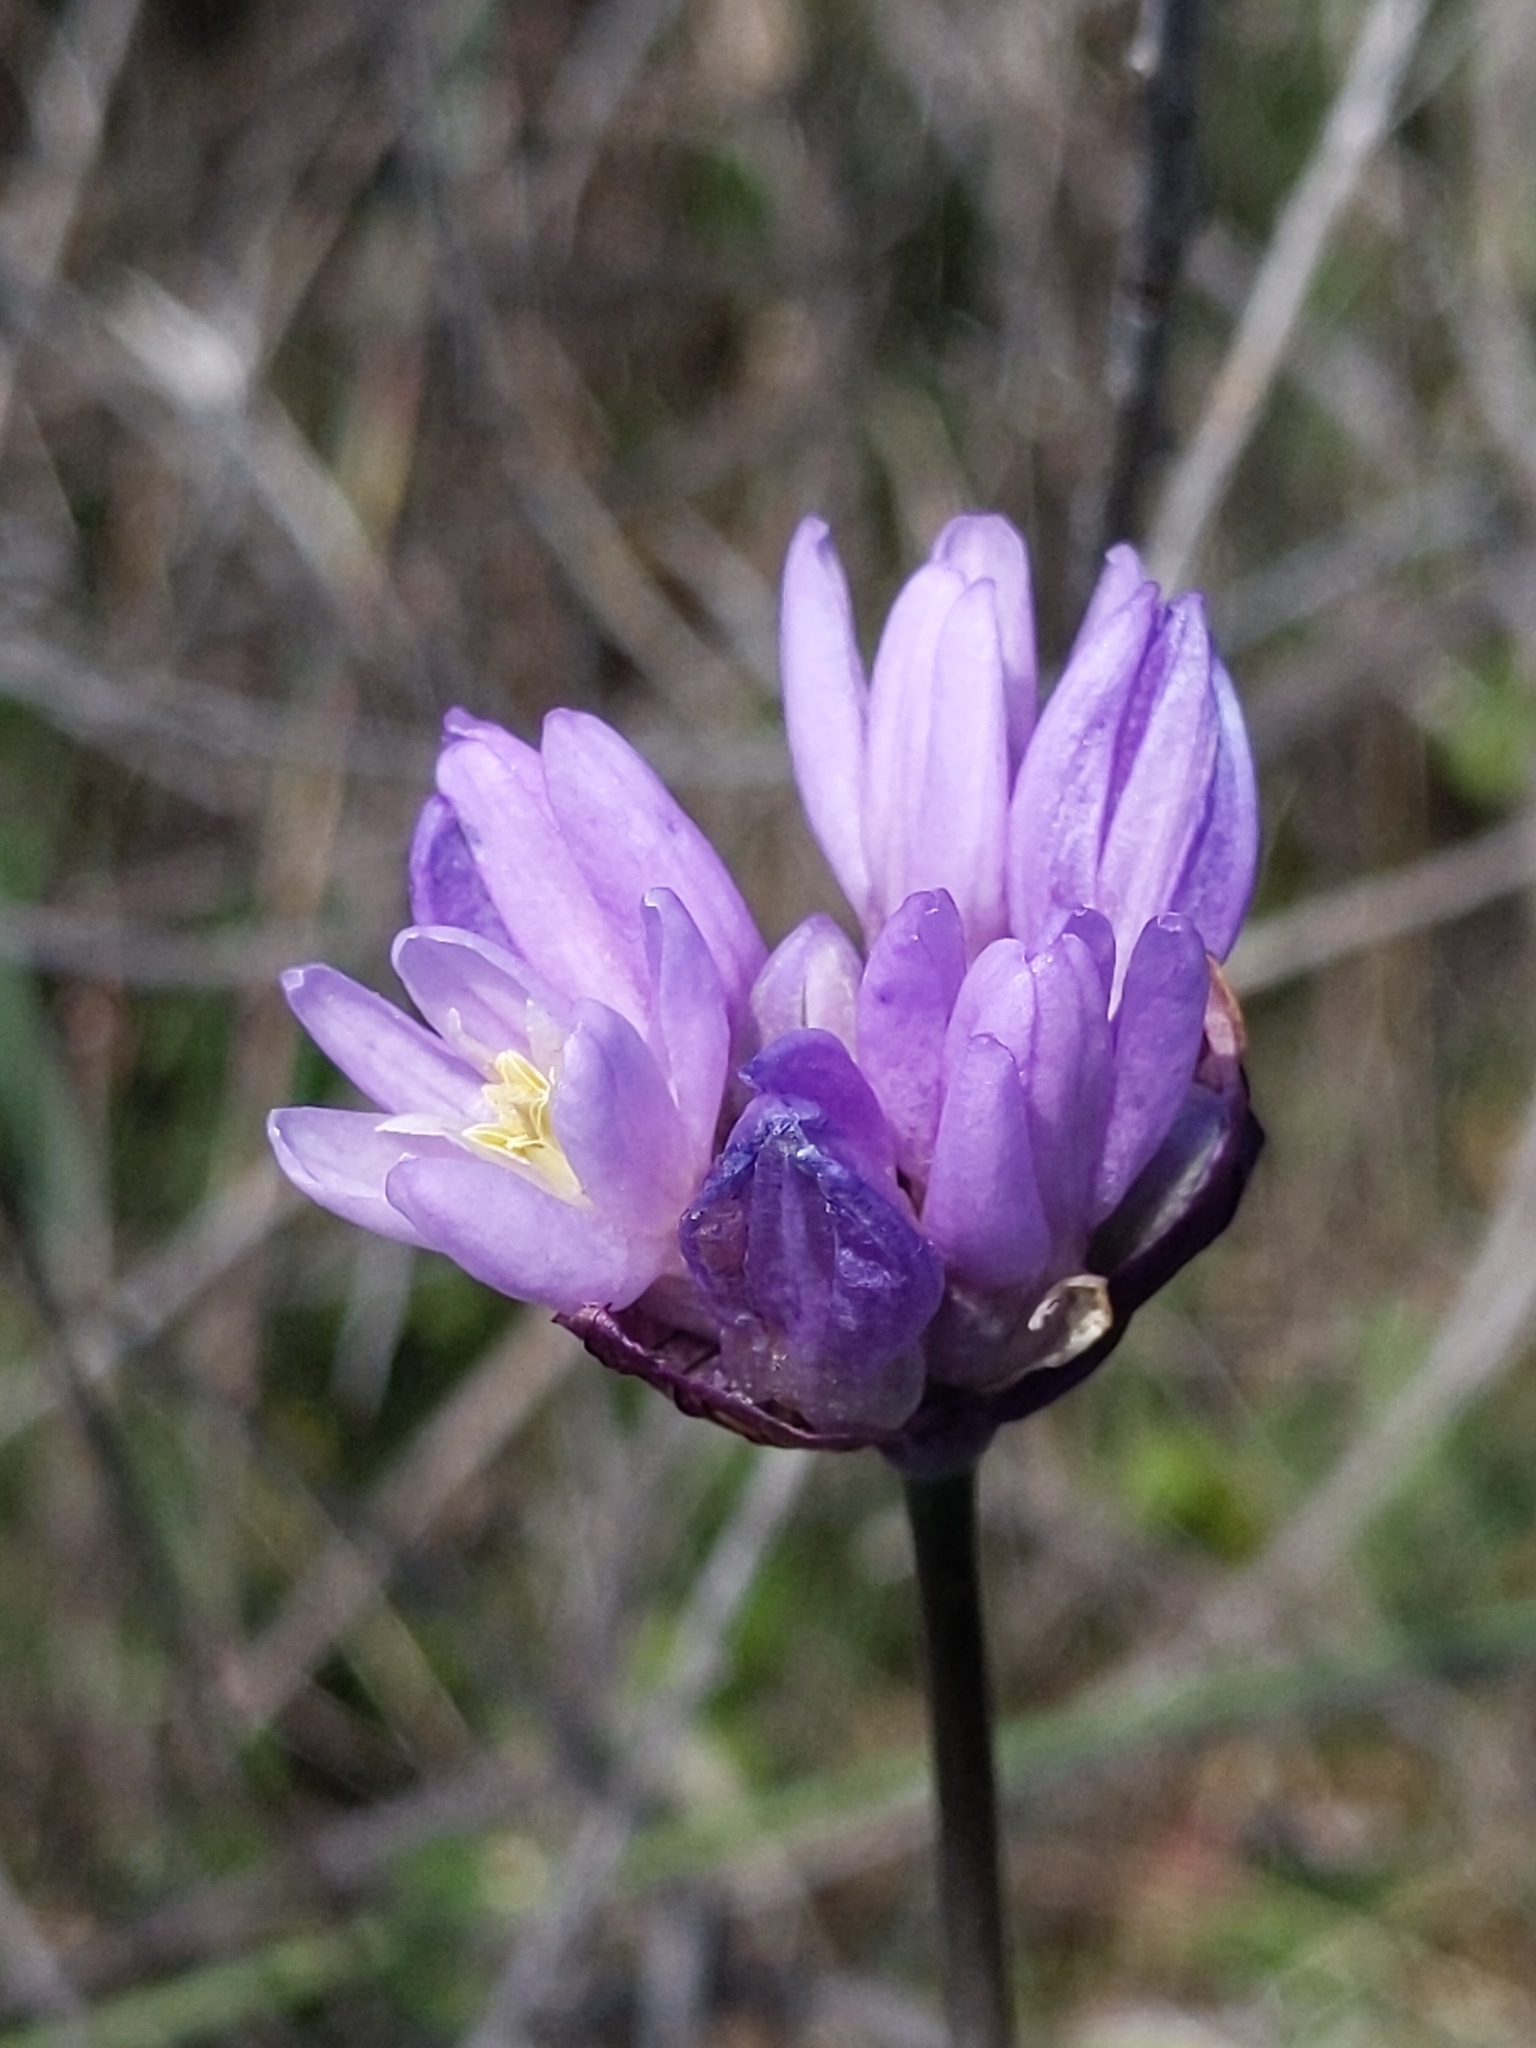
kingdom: Plantae
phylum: Tracheophyta
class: Liliopsida
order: Asparagales
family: Asparagaceae
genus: Dipterostemon
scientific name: Dipterostemon capitatus
